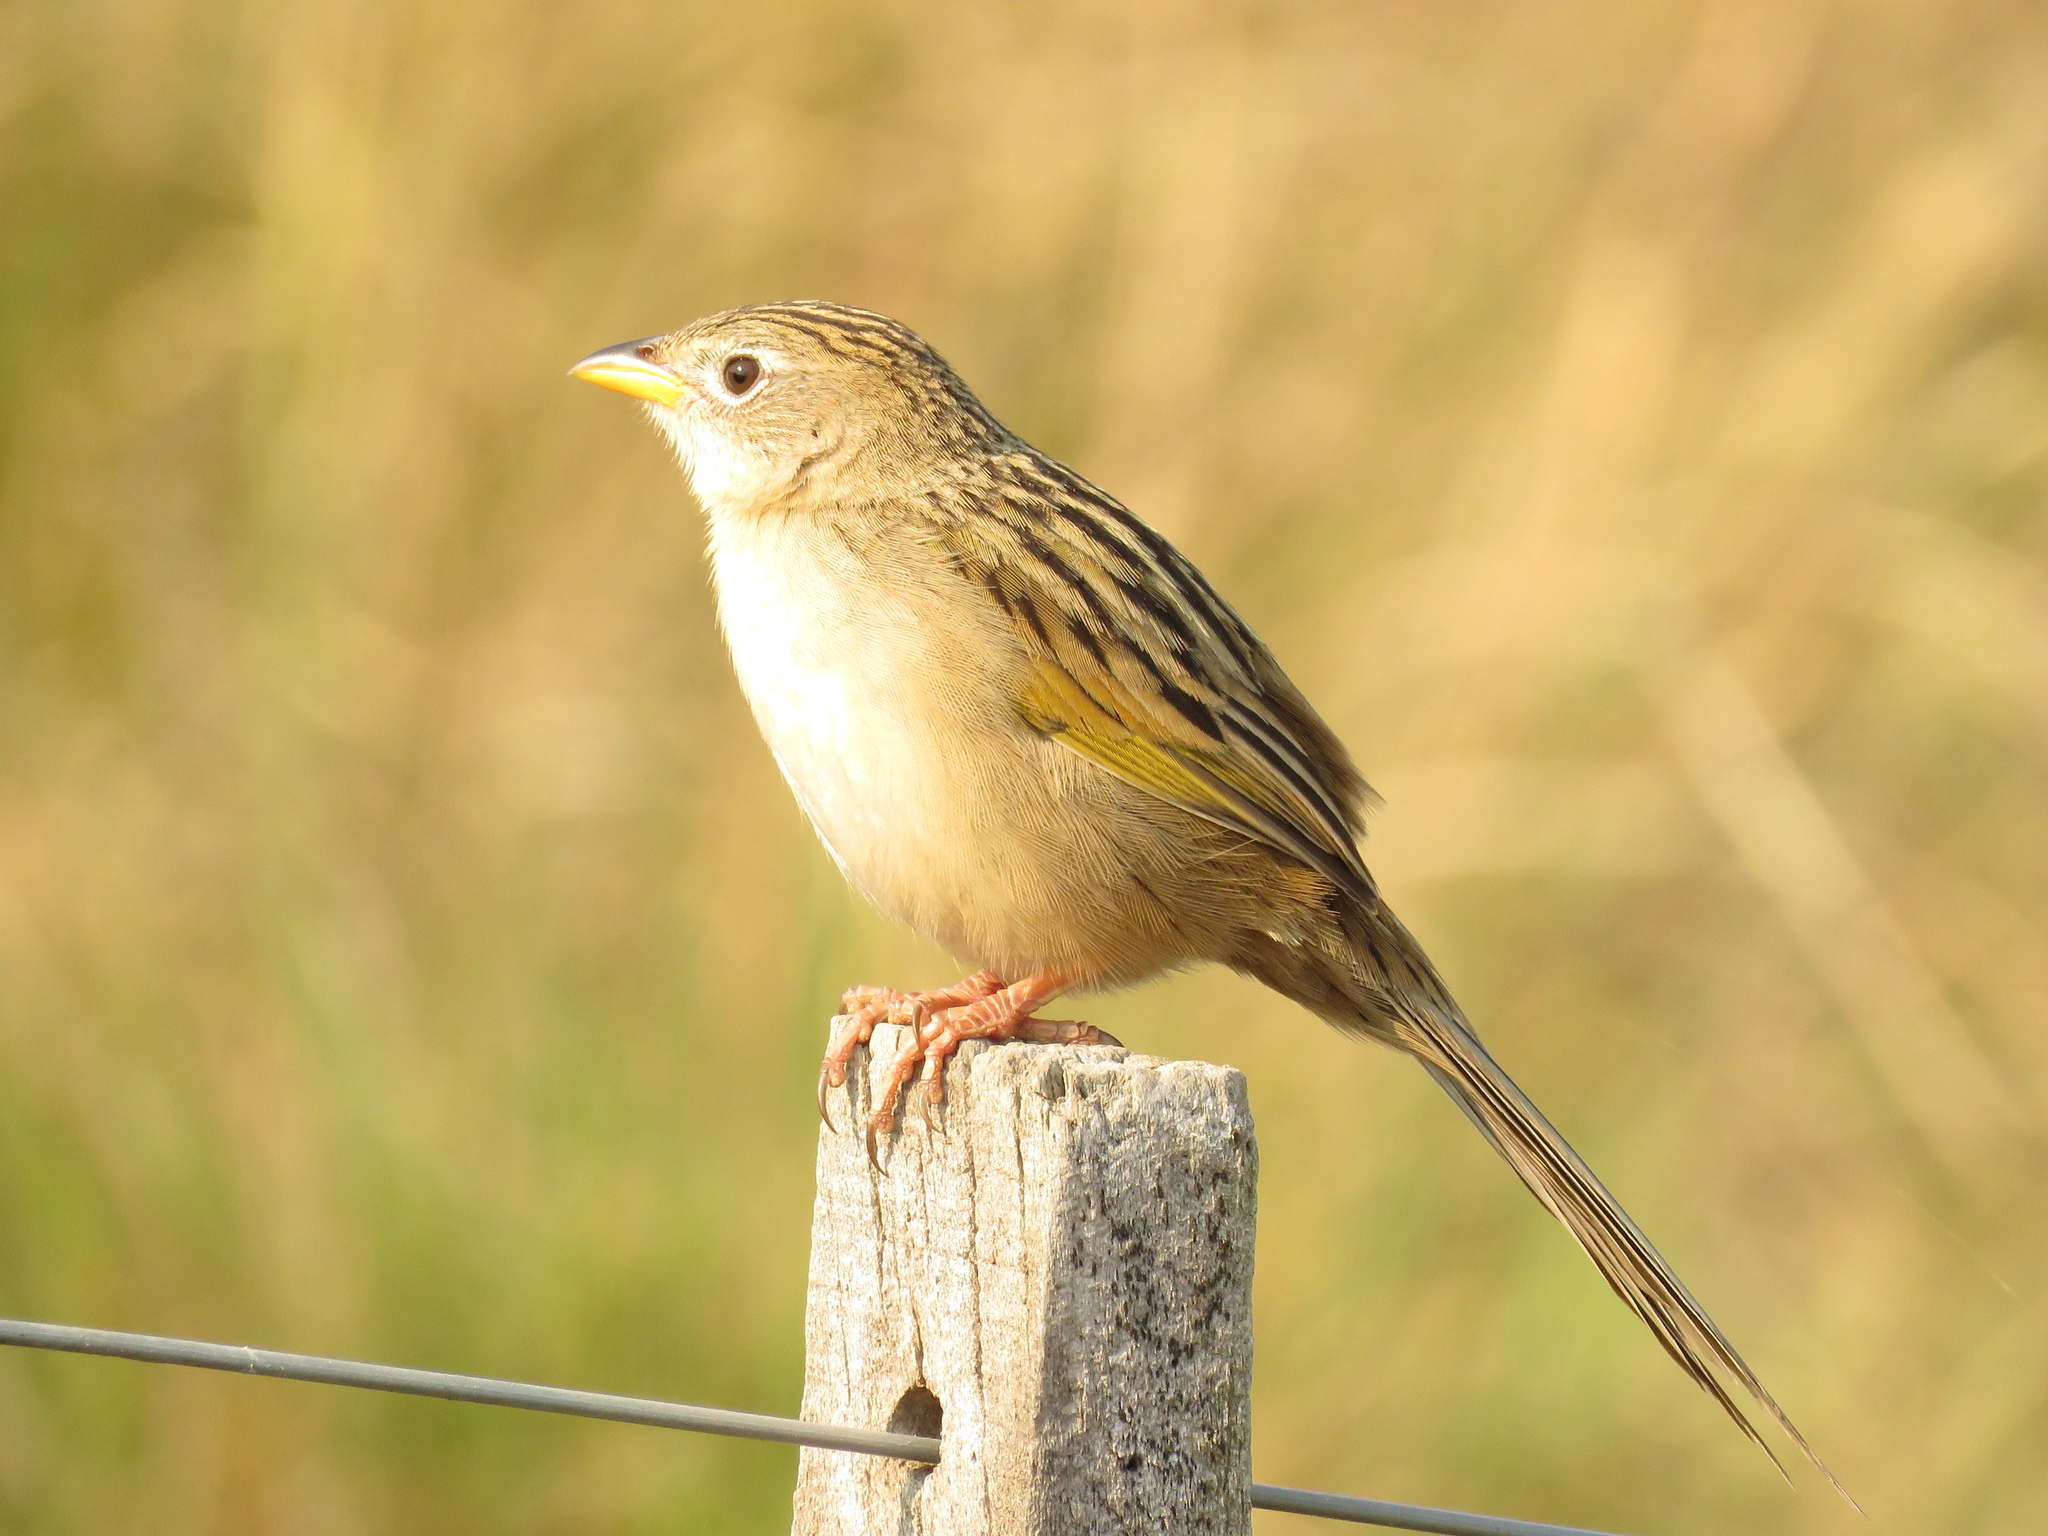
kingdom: Animalia
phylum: Chordata
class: Aves
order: Passeriformes
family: Thraupidae
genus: Emberizoides
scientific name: Emberizoides herbicola
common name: Wedge-tailed grass-finch
